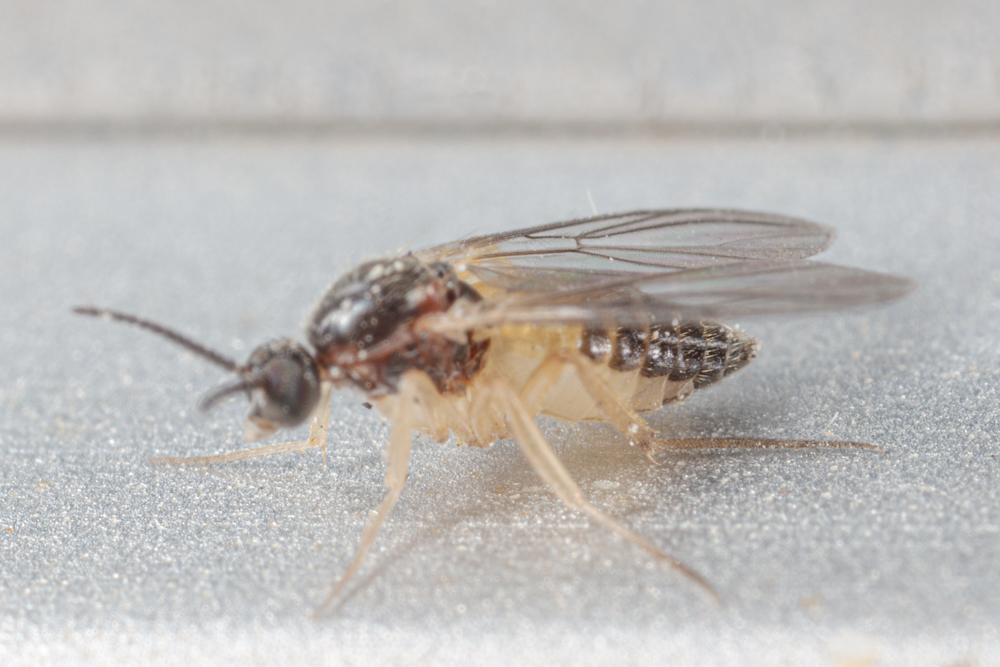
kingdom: Animalia
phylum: Arthropoda
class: Insecta
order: Diptera
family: Anisopodidae
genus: Mycetobia
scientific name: Mycetobia divergens
